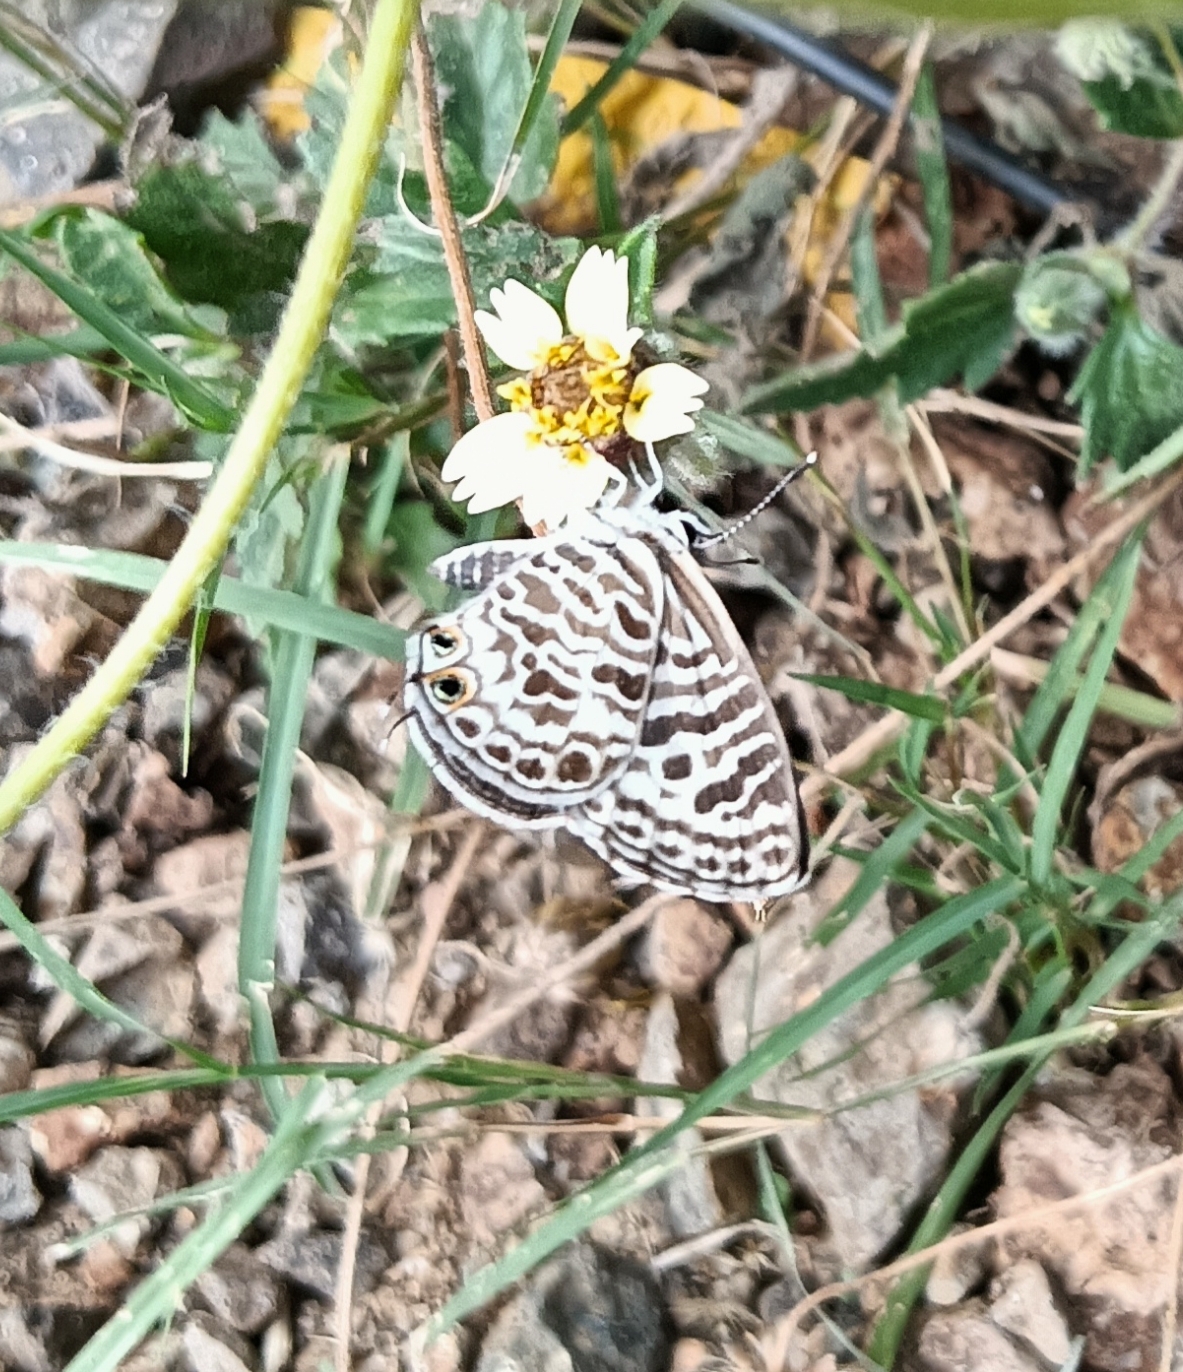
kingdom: Animalia
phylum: Arthropoda
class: Insecta
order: Lepidoptera
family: Lycaenidae
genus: Leptotes
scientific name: Leptotes plinius
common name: Zebra blue
